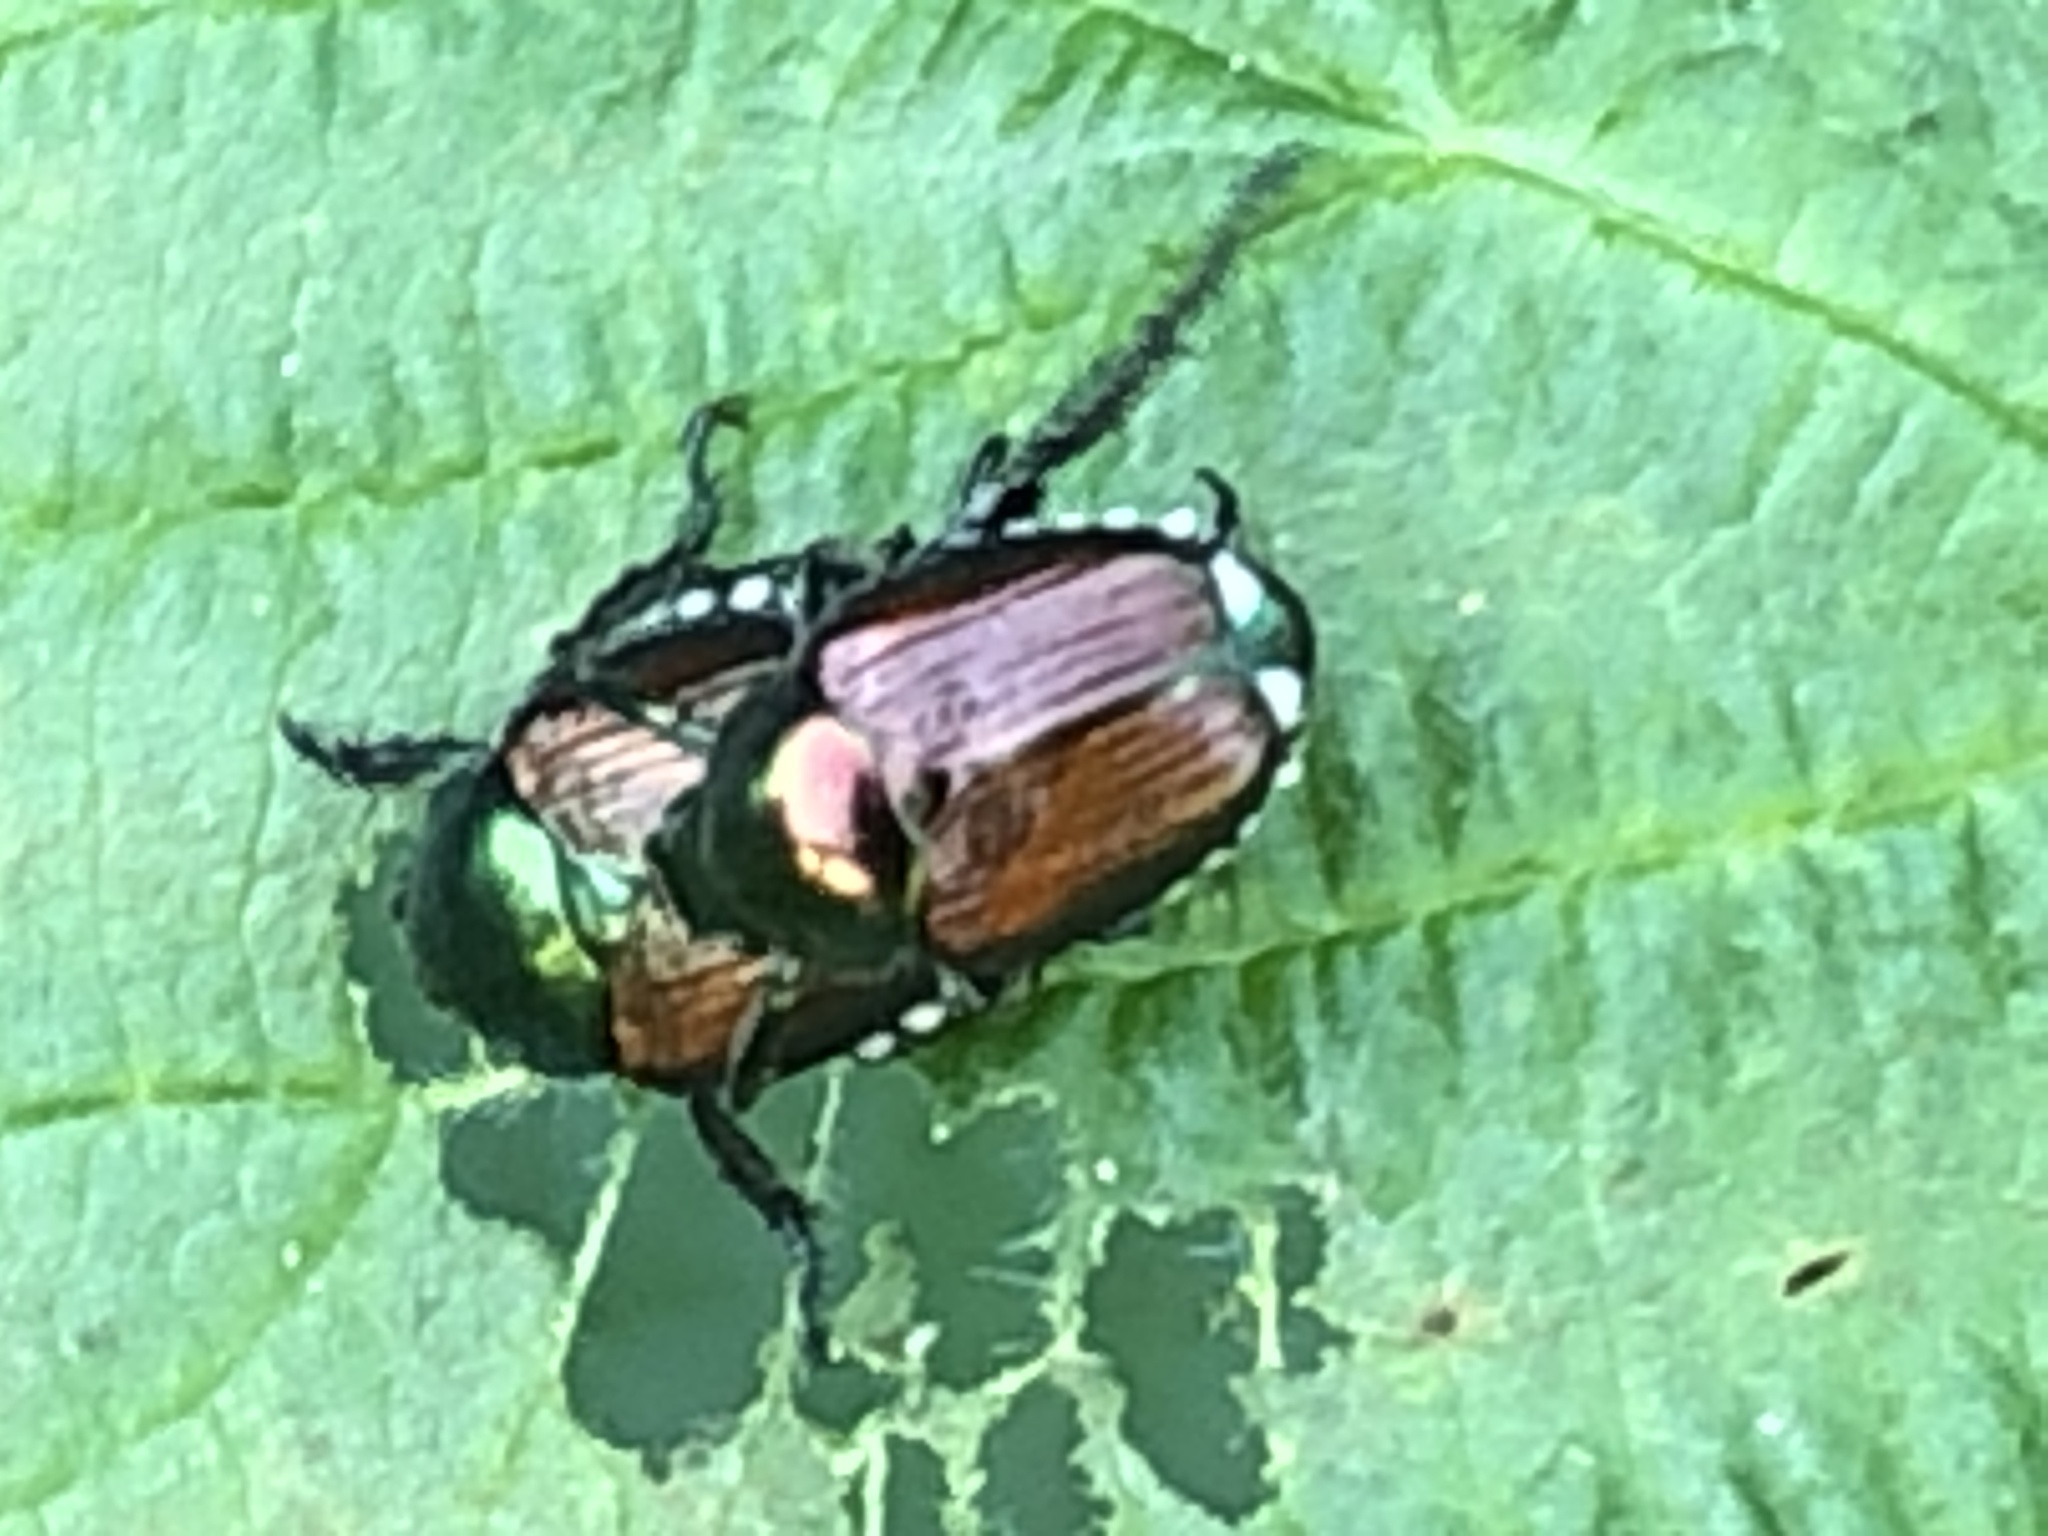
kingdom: Animalia
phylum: Arthropoda
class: Insecta
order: Coleoptera
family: Scarabaeidae
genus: Popillia
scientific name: Popillia japonica
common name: Japanese beetle
